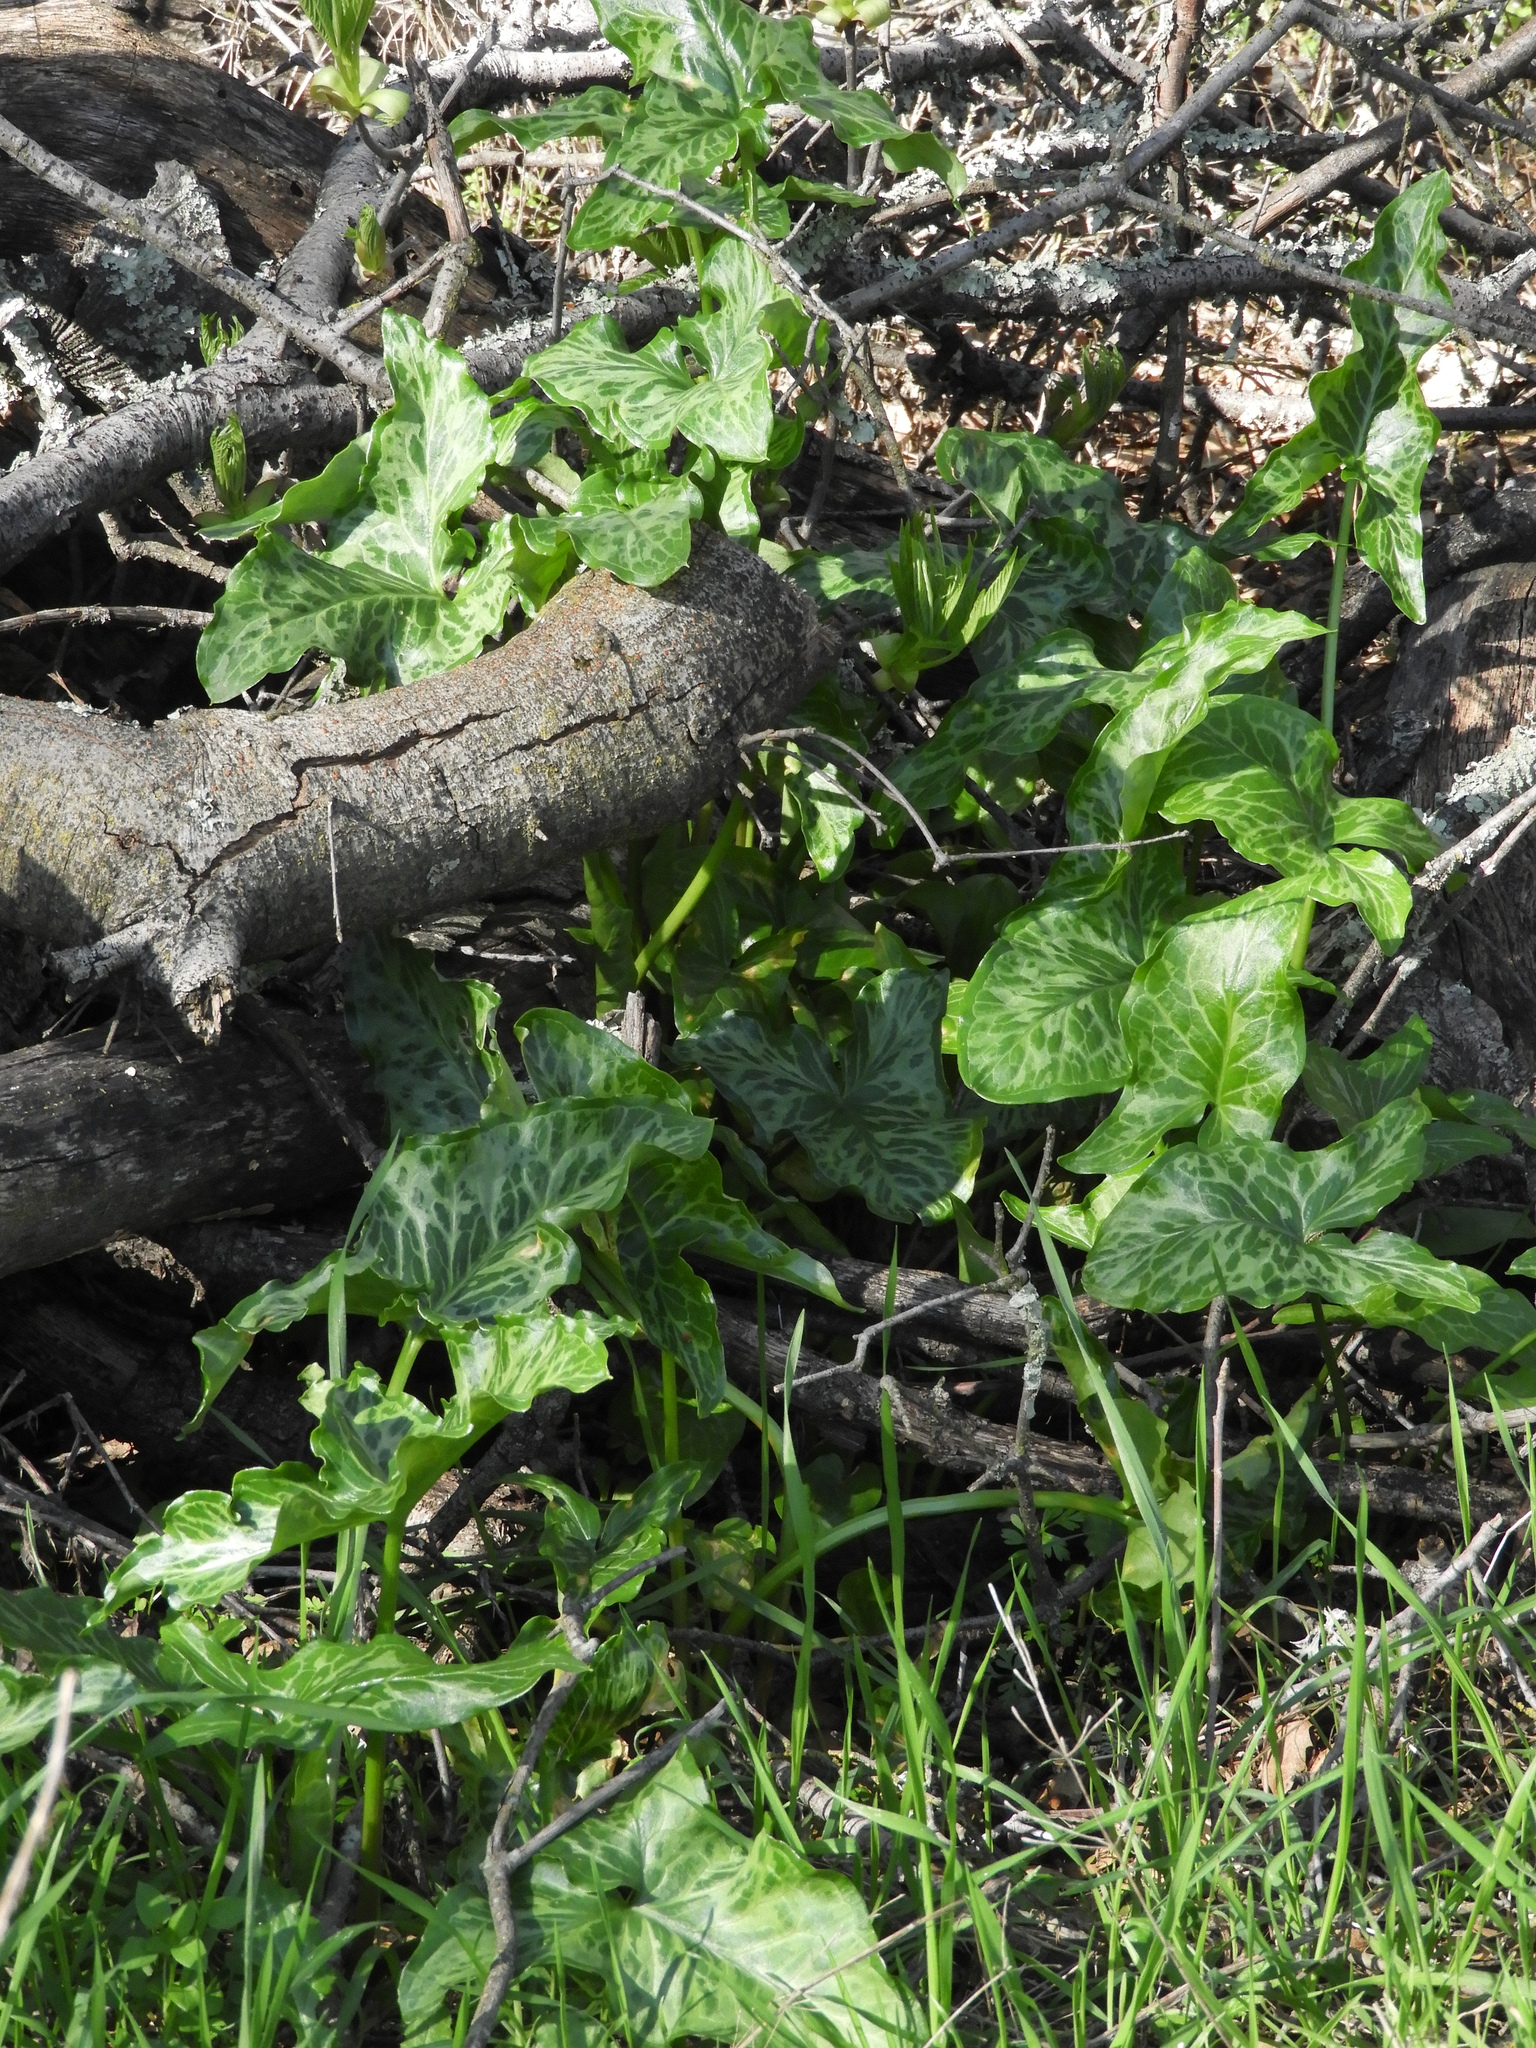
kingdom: Plantae
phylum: Tracheophyta
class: Liliopsida
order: Alismatales
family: Araceae
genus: Arum
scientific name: Arum italicum
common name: Italian lords-and-ladies
